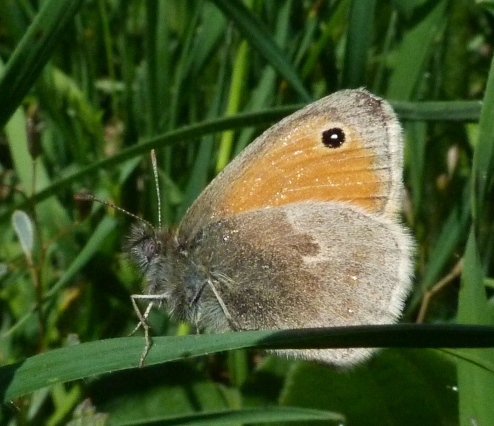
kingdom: Animalia
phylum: Arthropoda
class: Insecta
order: Lepidoptera
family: Nymphalidae
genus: Coenonympha
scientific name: Coenonympha pamphilus
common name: Small heath
